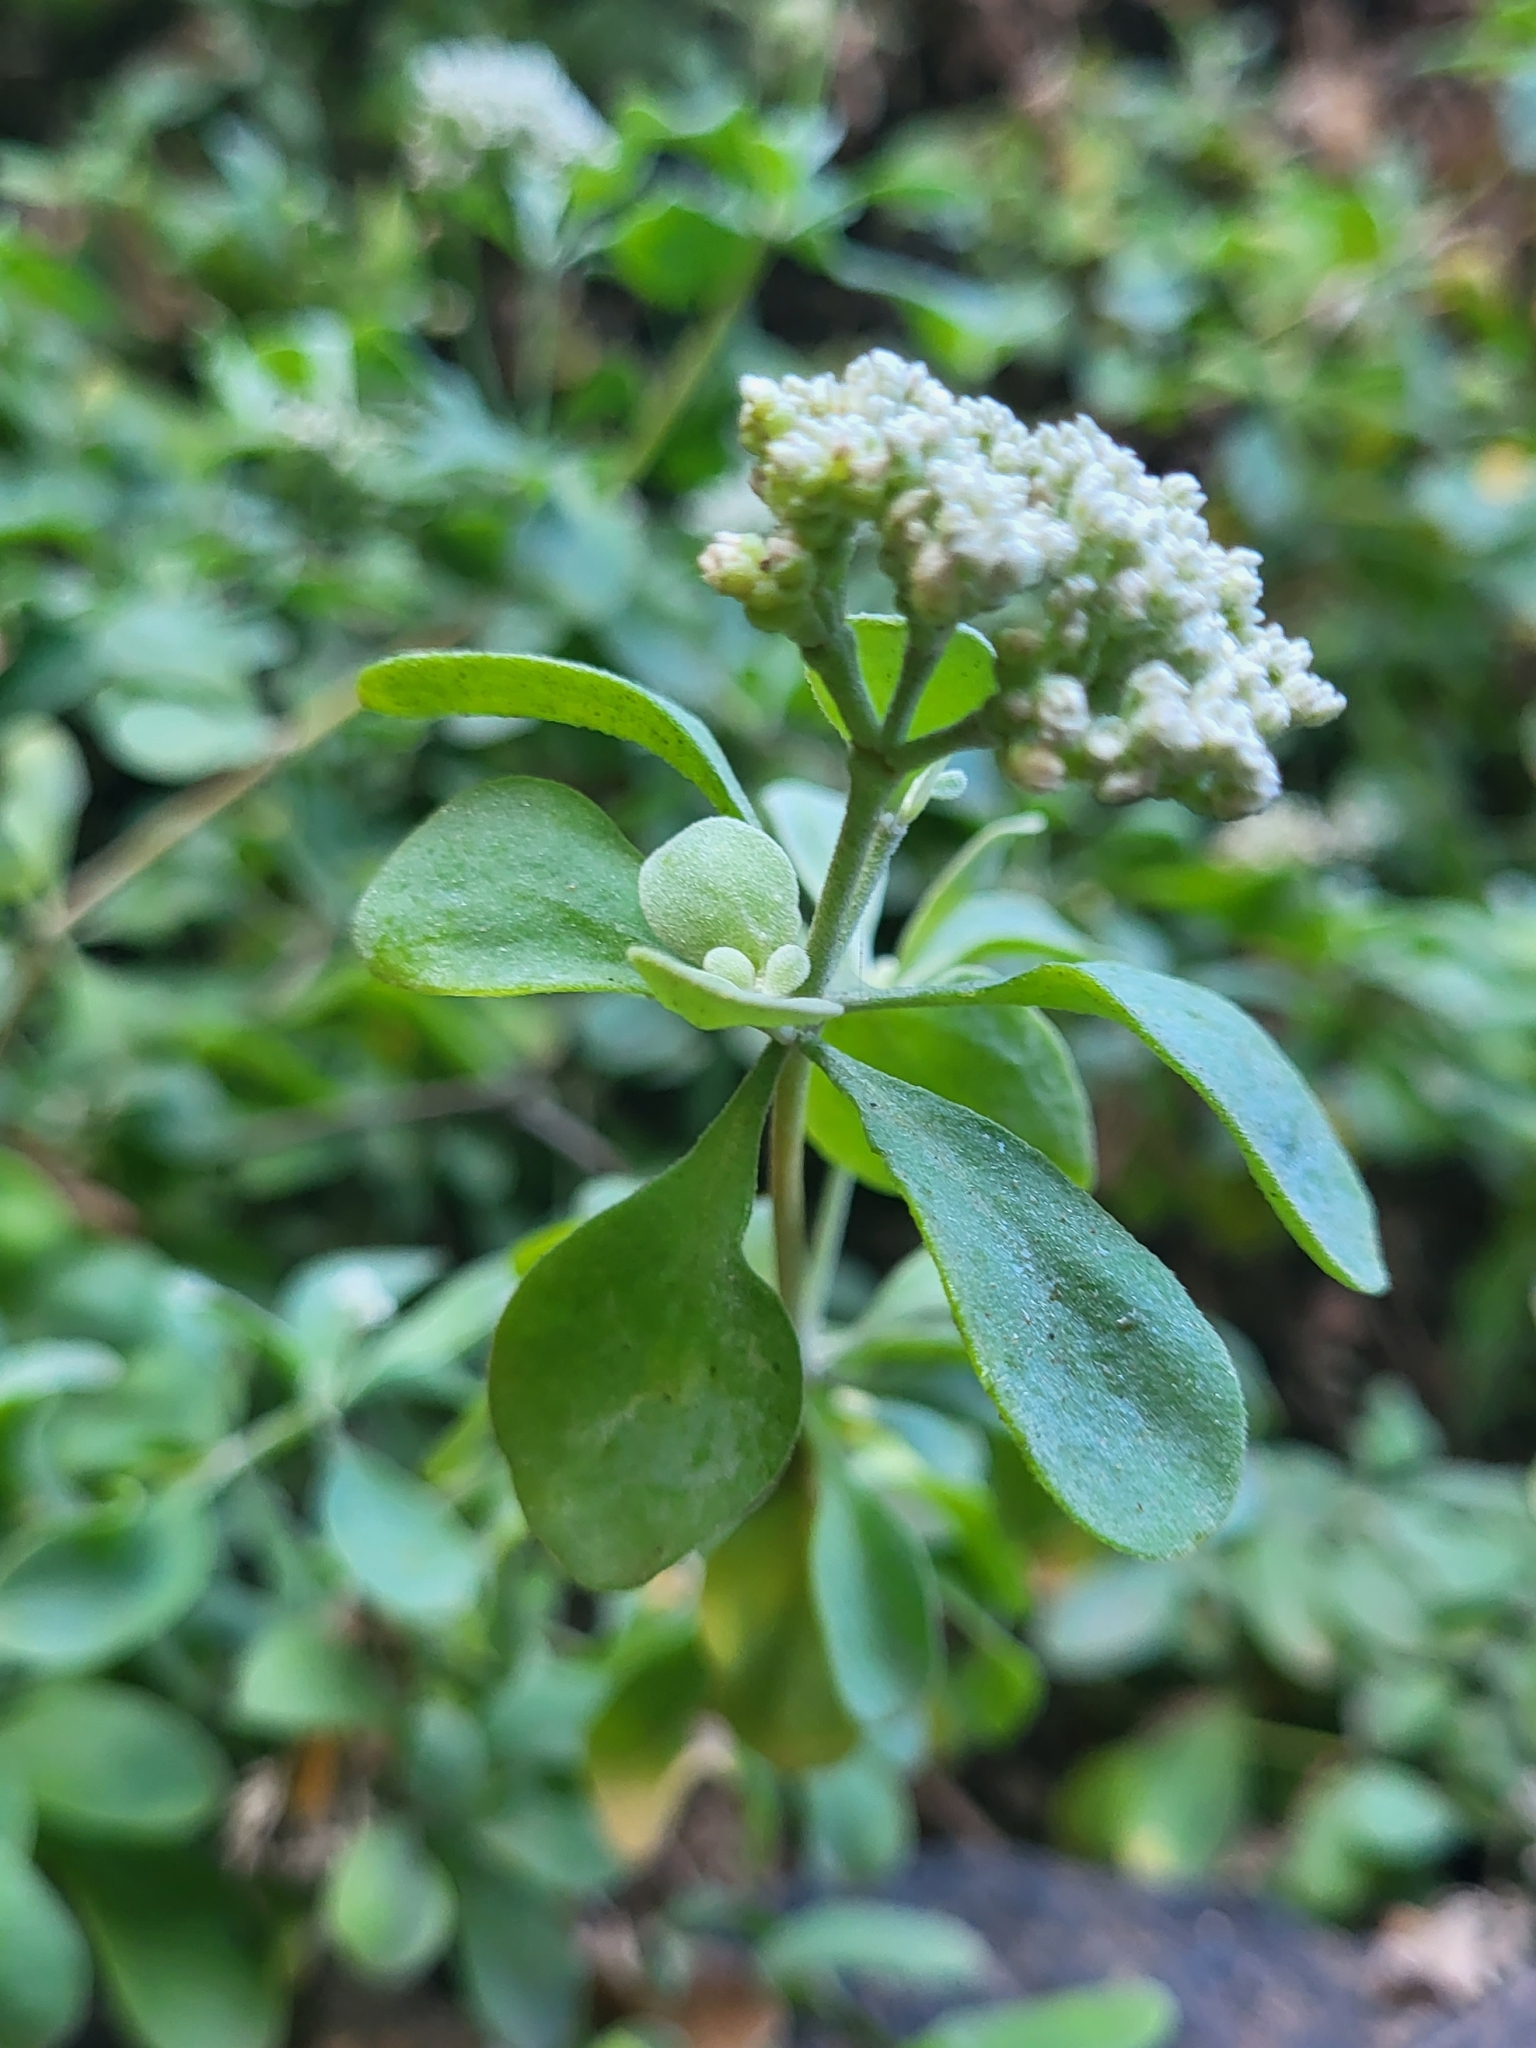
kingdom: Plantae
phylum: Tracheophyta
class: Magnoliopsida
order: Caryophyllales
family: Caryophyllaceae
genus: Polycarpaea
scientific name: Polycarpaea gayi
